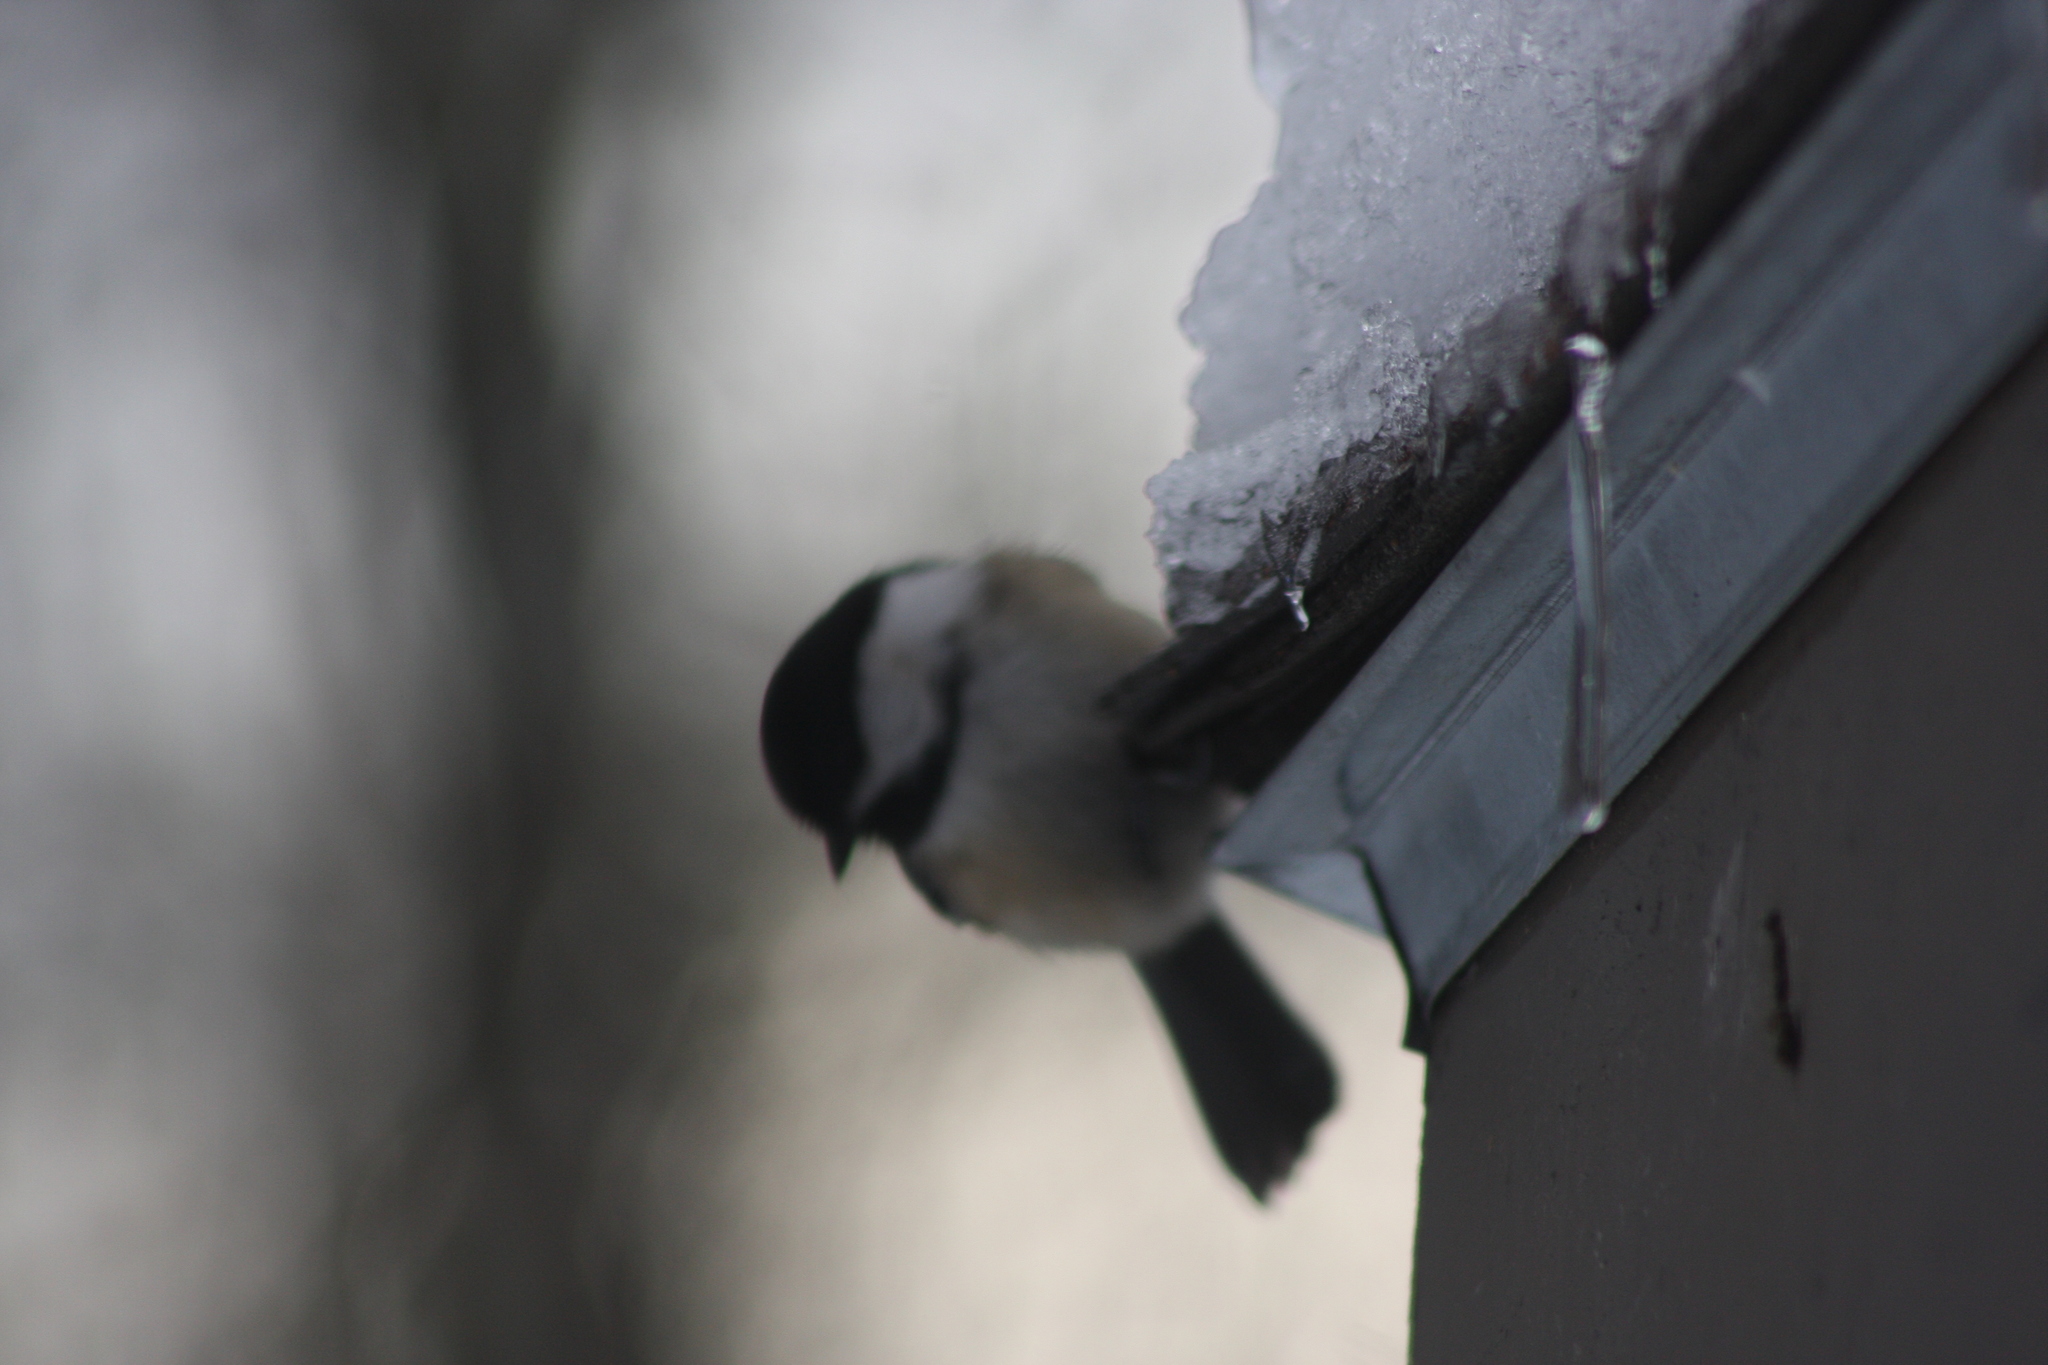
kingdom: Animalia
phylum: Chordata
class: Aves
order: Passeriformes
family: Paridae
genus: Poecile
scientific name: Poecile atricapillus
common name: Black-capped chickadee
